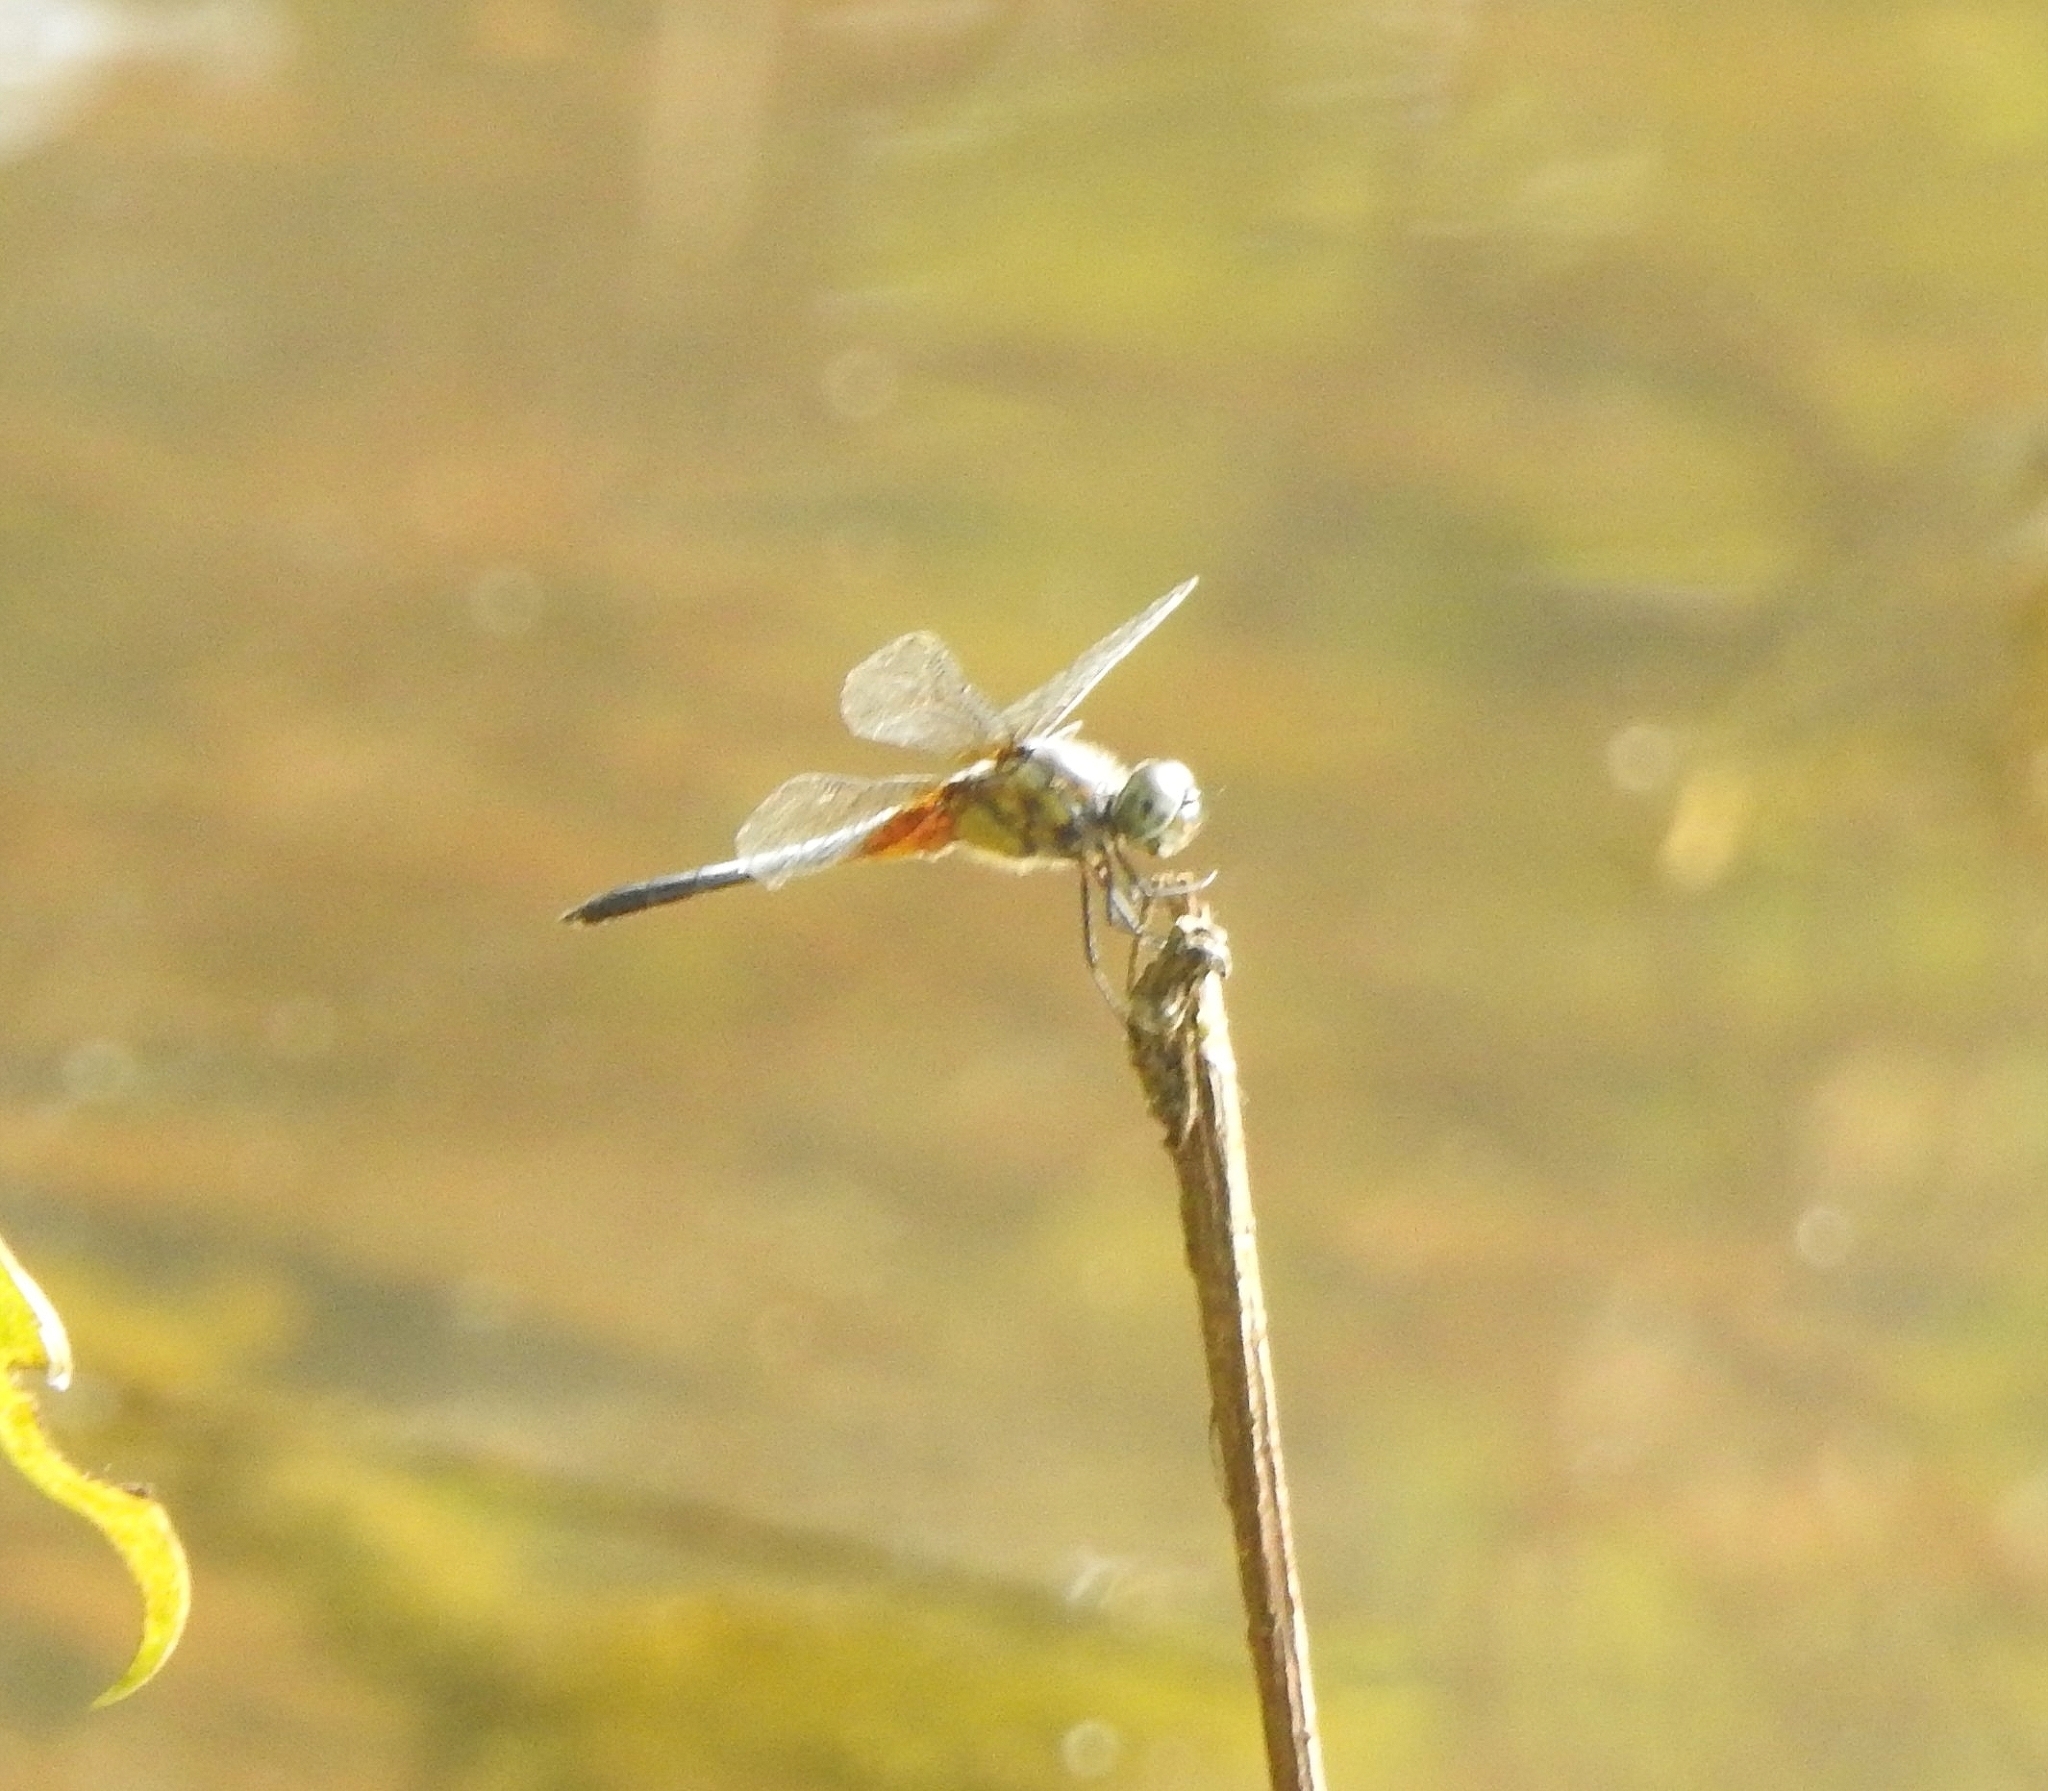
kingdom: Animalia
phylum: Arthropoda
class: Insecta
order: Odonata
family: Libellulidae
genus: Brachydiplax
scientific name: Brachydiplax chalybea
